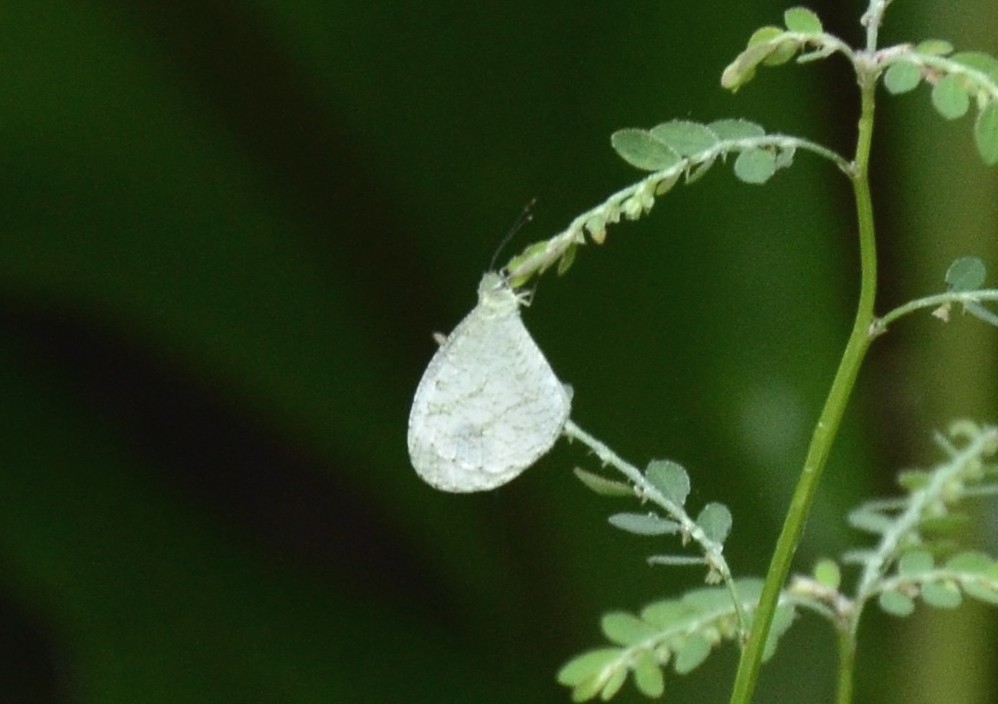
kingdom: Animalia
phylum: Arthropoda
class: Insecta
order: Lepidoptera
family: Pieridae
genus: Leptosia
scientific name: Leptosia nina
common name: Psyche
